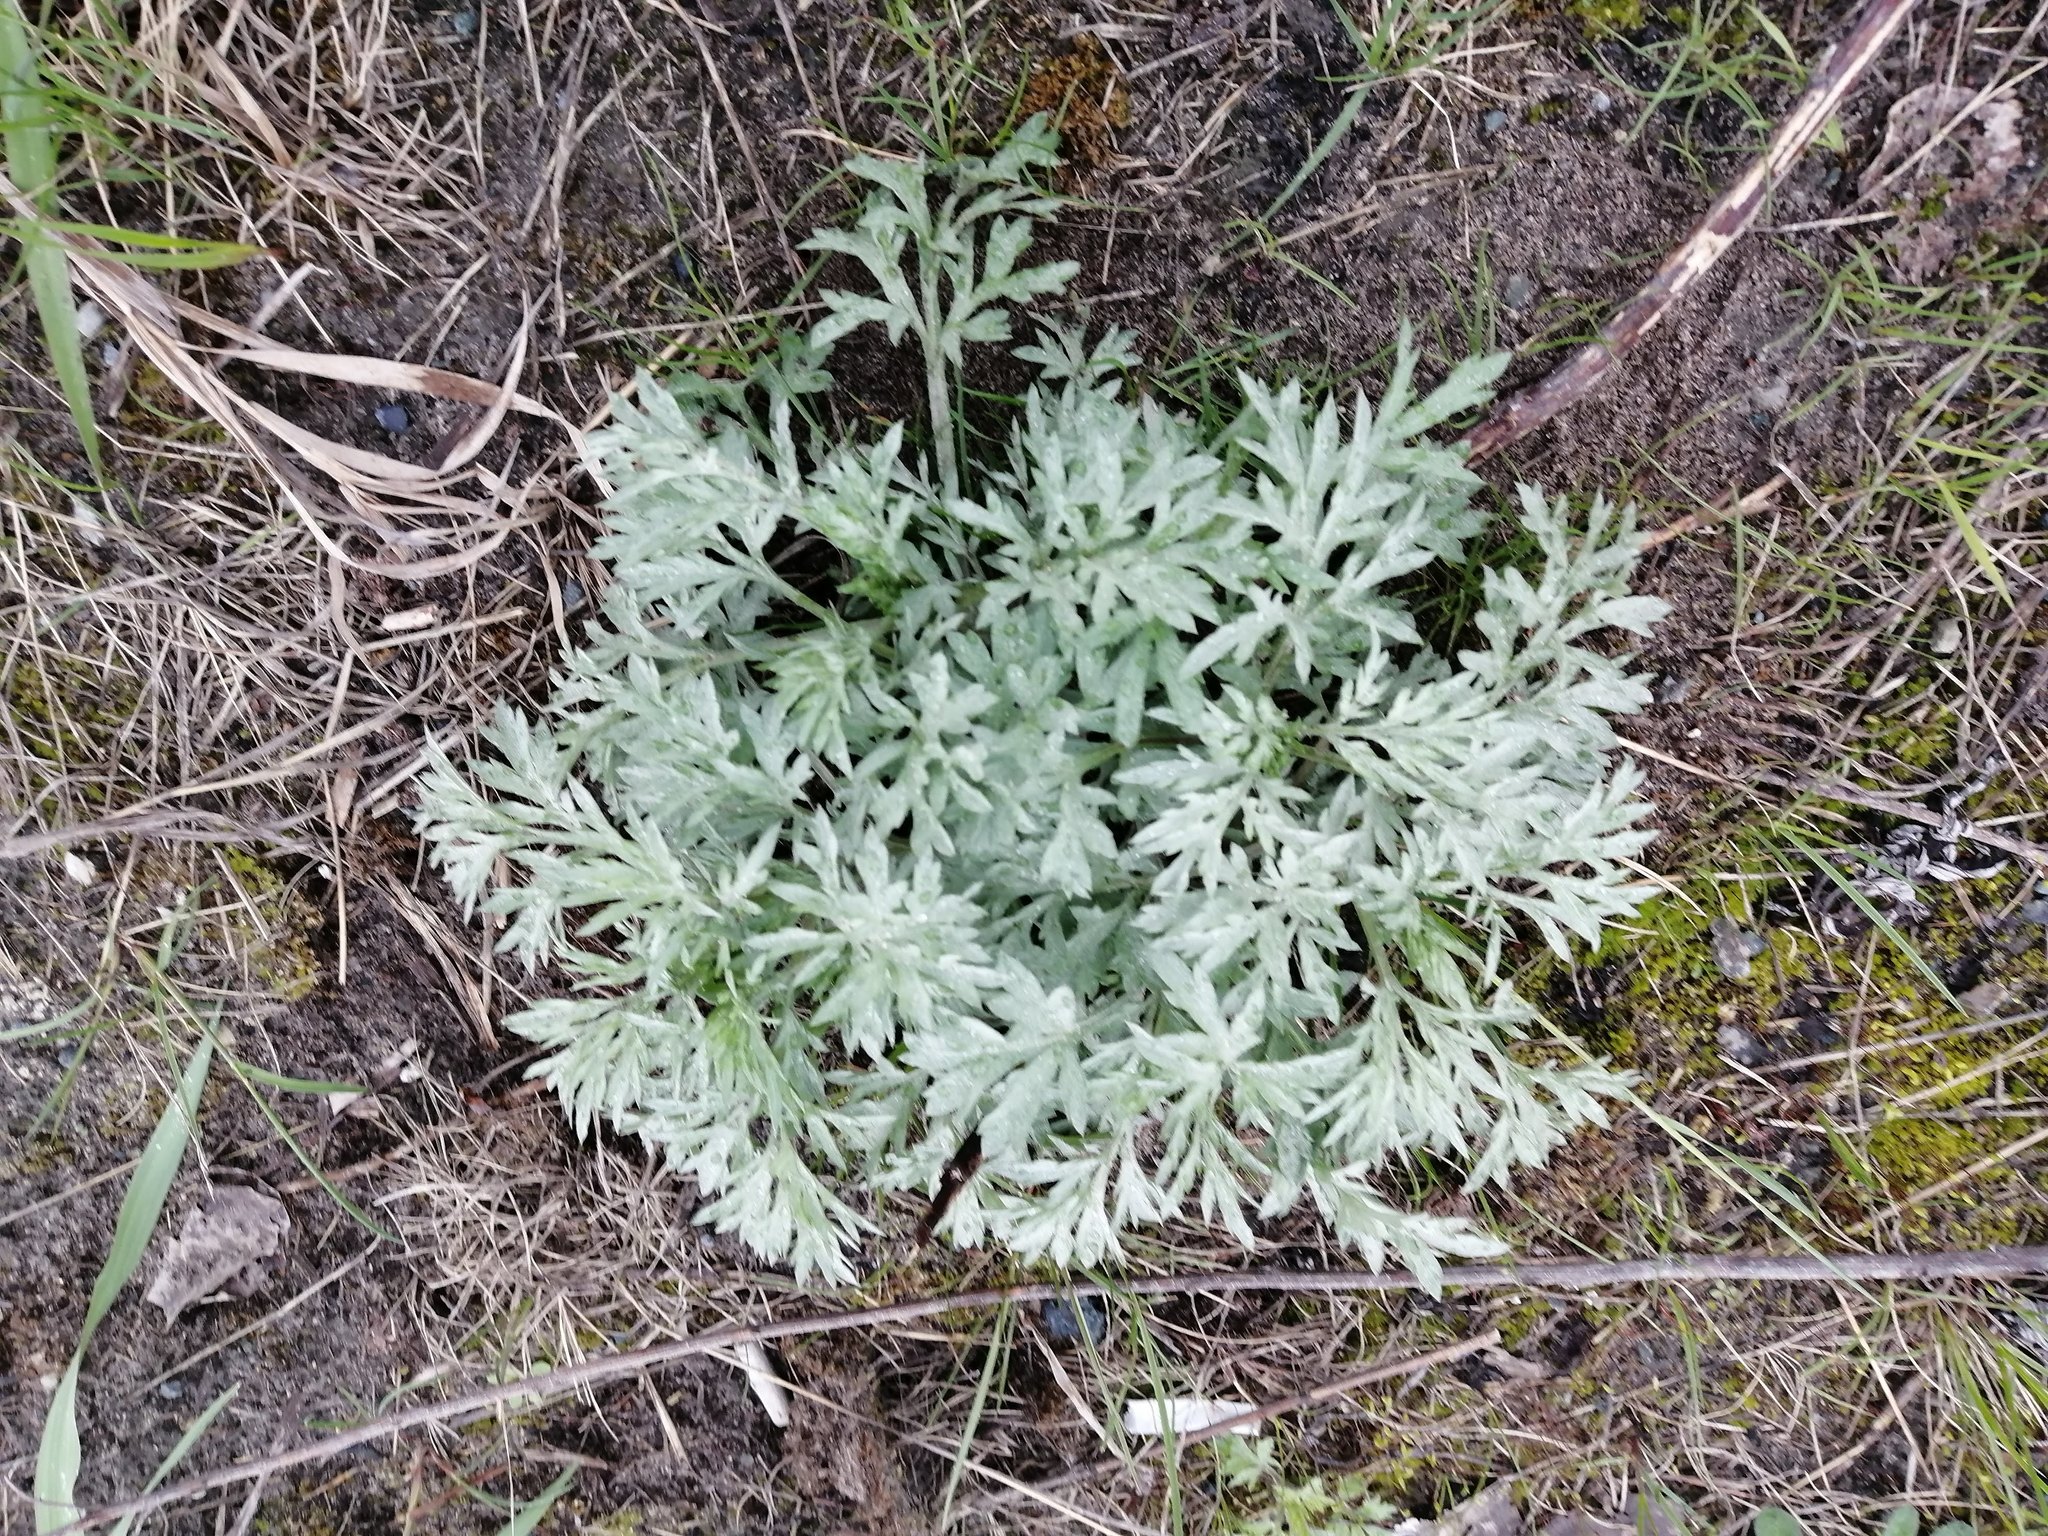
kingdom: Plantae
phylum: Tracheophyta
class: Magnoliopsida
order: Asterales
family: Asteraceae
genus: Artemisia
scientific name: Artemisia absinthium
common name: Wormwood
